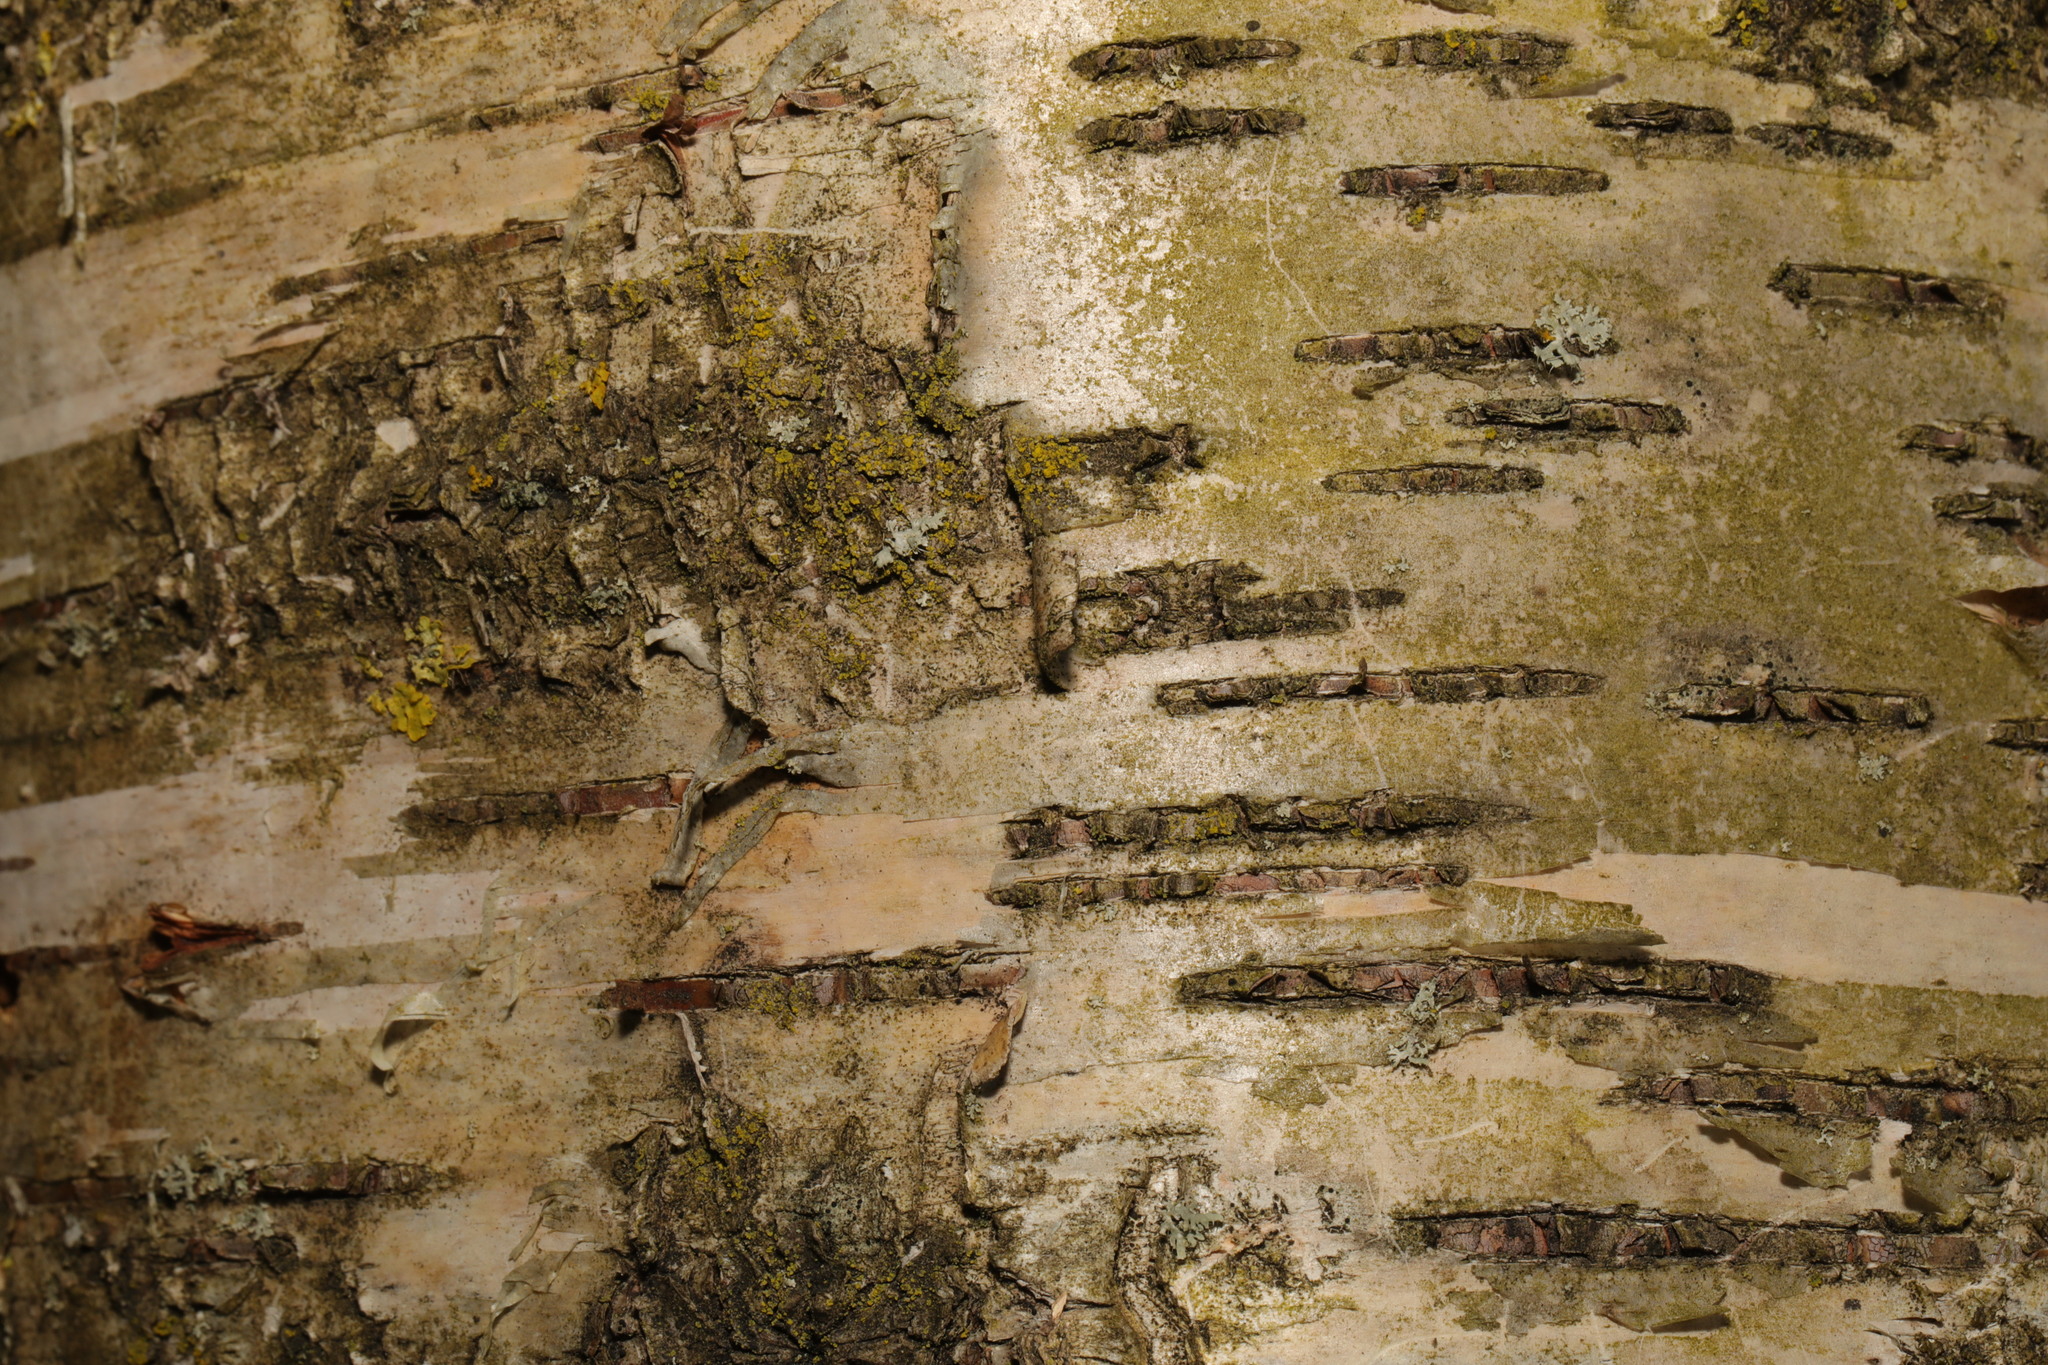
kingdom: Plantae
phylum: Tracheophyta
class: Magnoliopsida
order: Fagales
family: Betulaceae
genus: Betula
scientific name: Betula pubescens
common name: Downy birch
